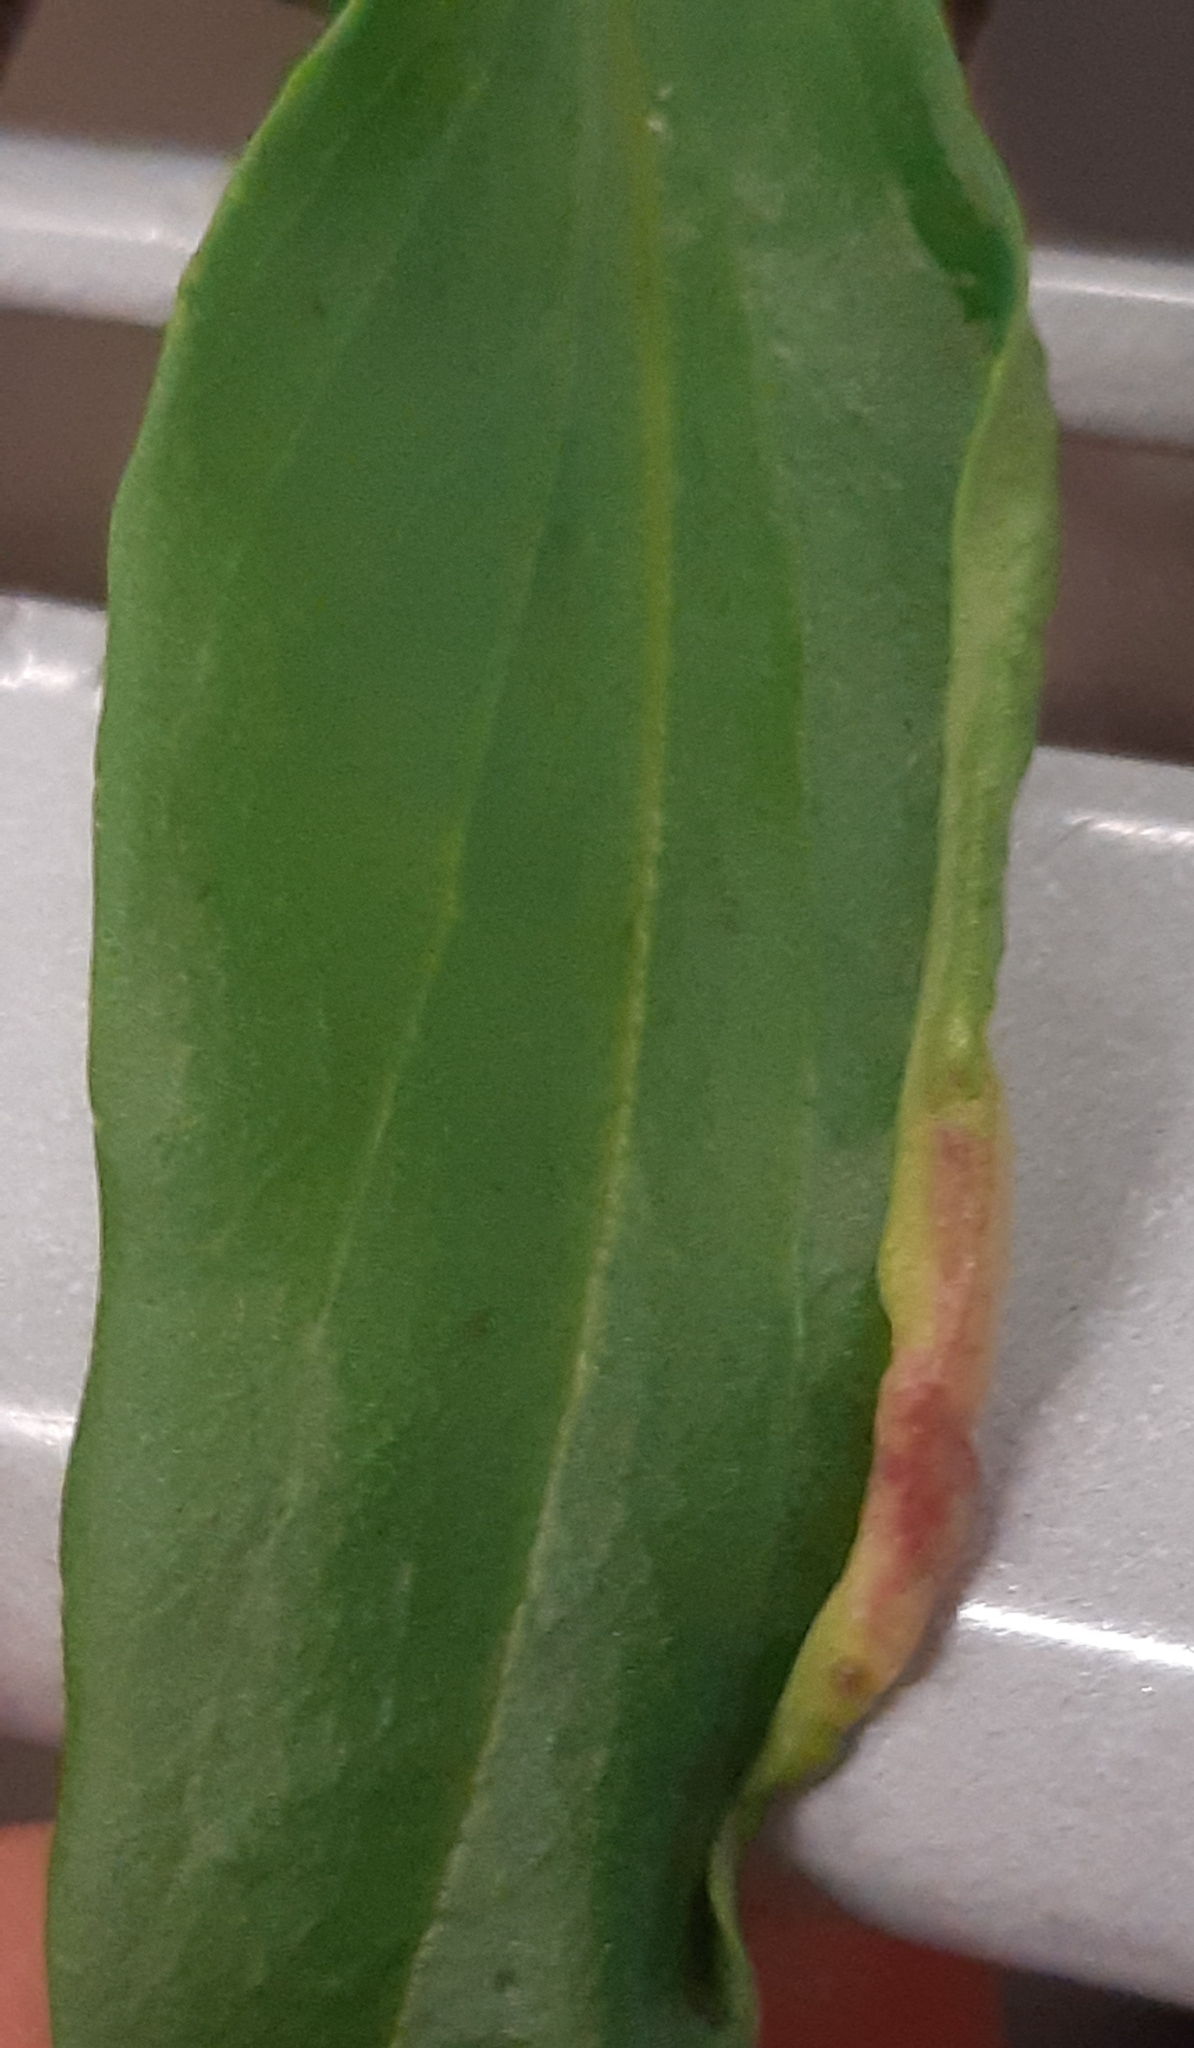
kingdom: Animalia
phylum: Arthropoda
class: Insecta
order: Hemiptera
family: Triozidae
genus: Trioza
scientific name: Trioza centranthi
